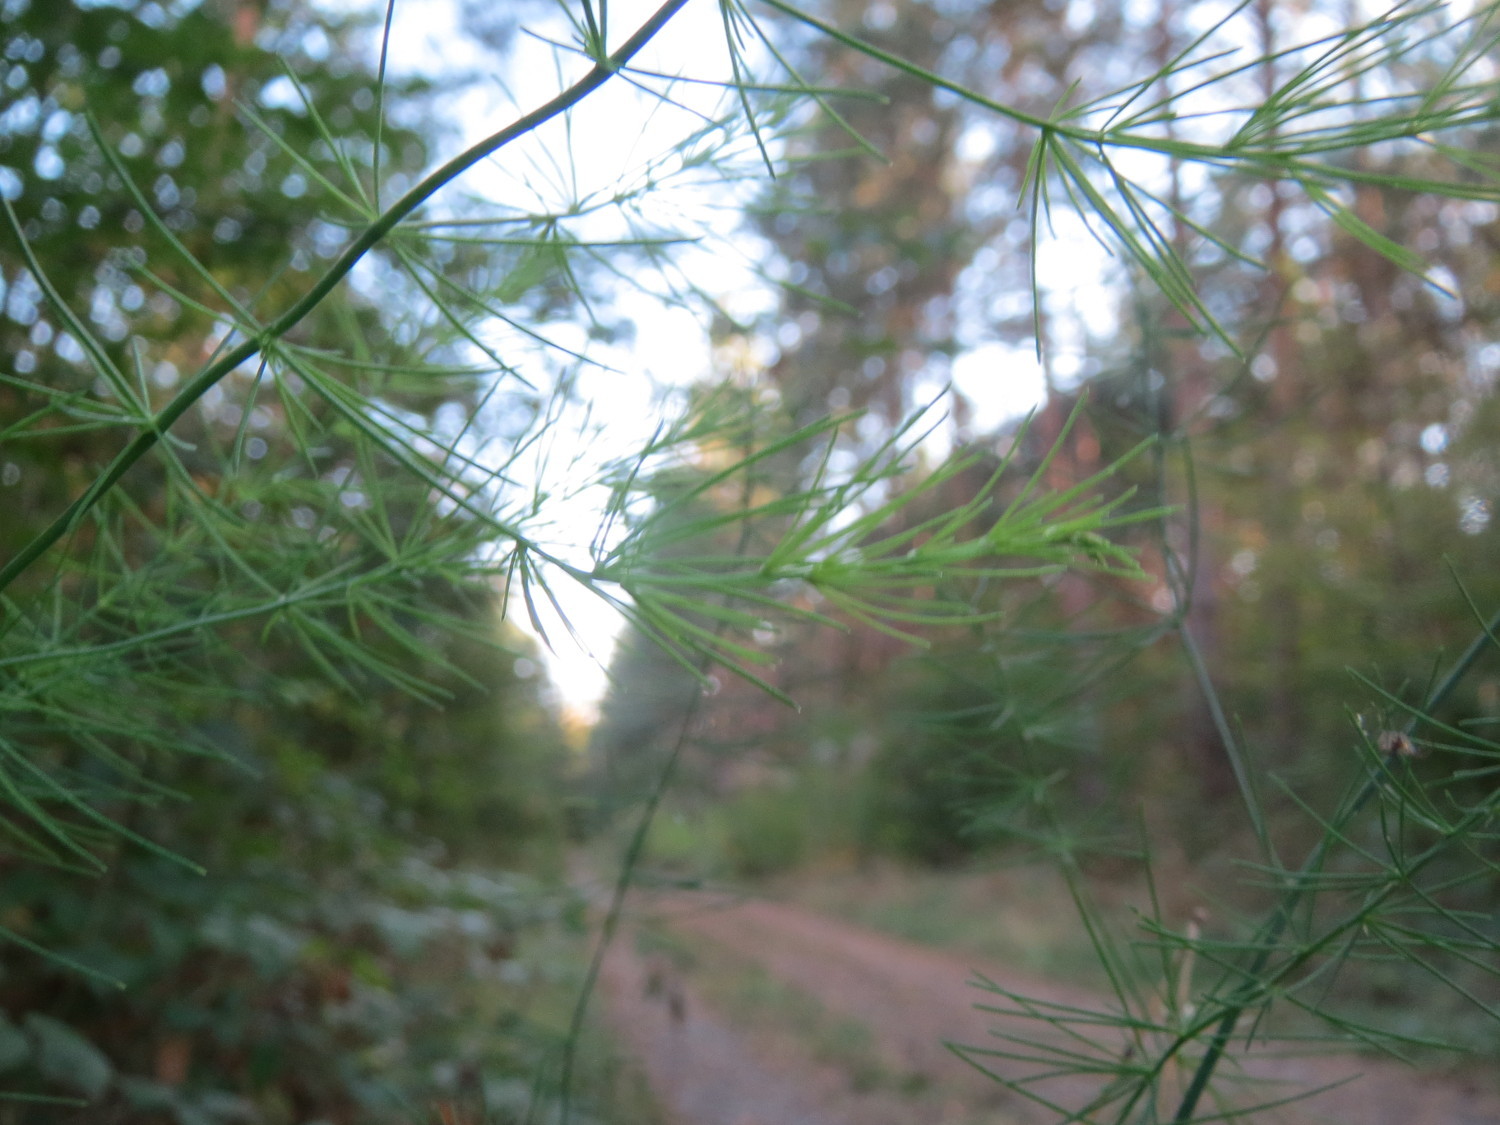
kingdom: Plantae
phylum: Tracheophyta
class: Liliopsida
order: Asparagales
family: Asparagaceae
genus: Asparagus
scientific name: Asparagus officinalis
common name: Garden asparagus
